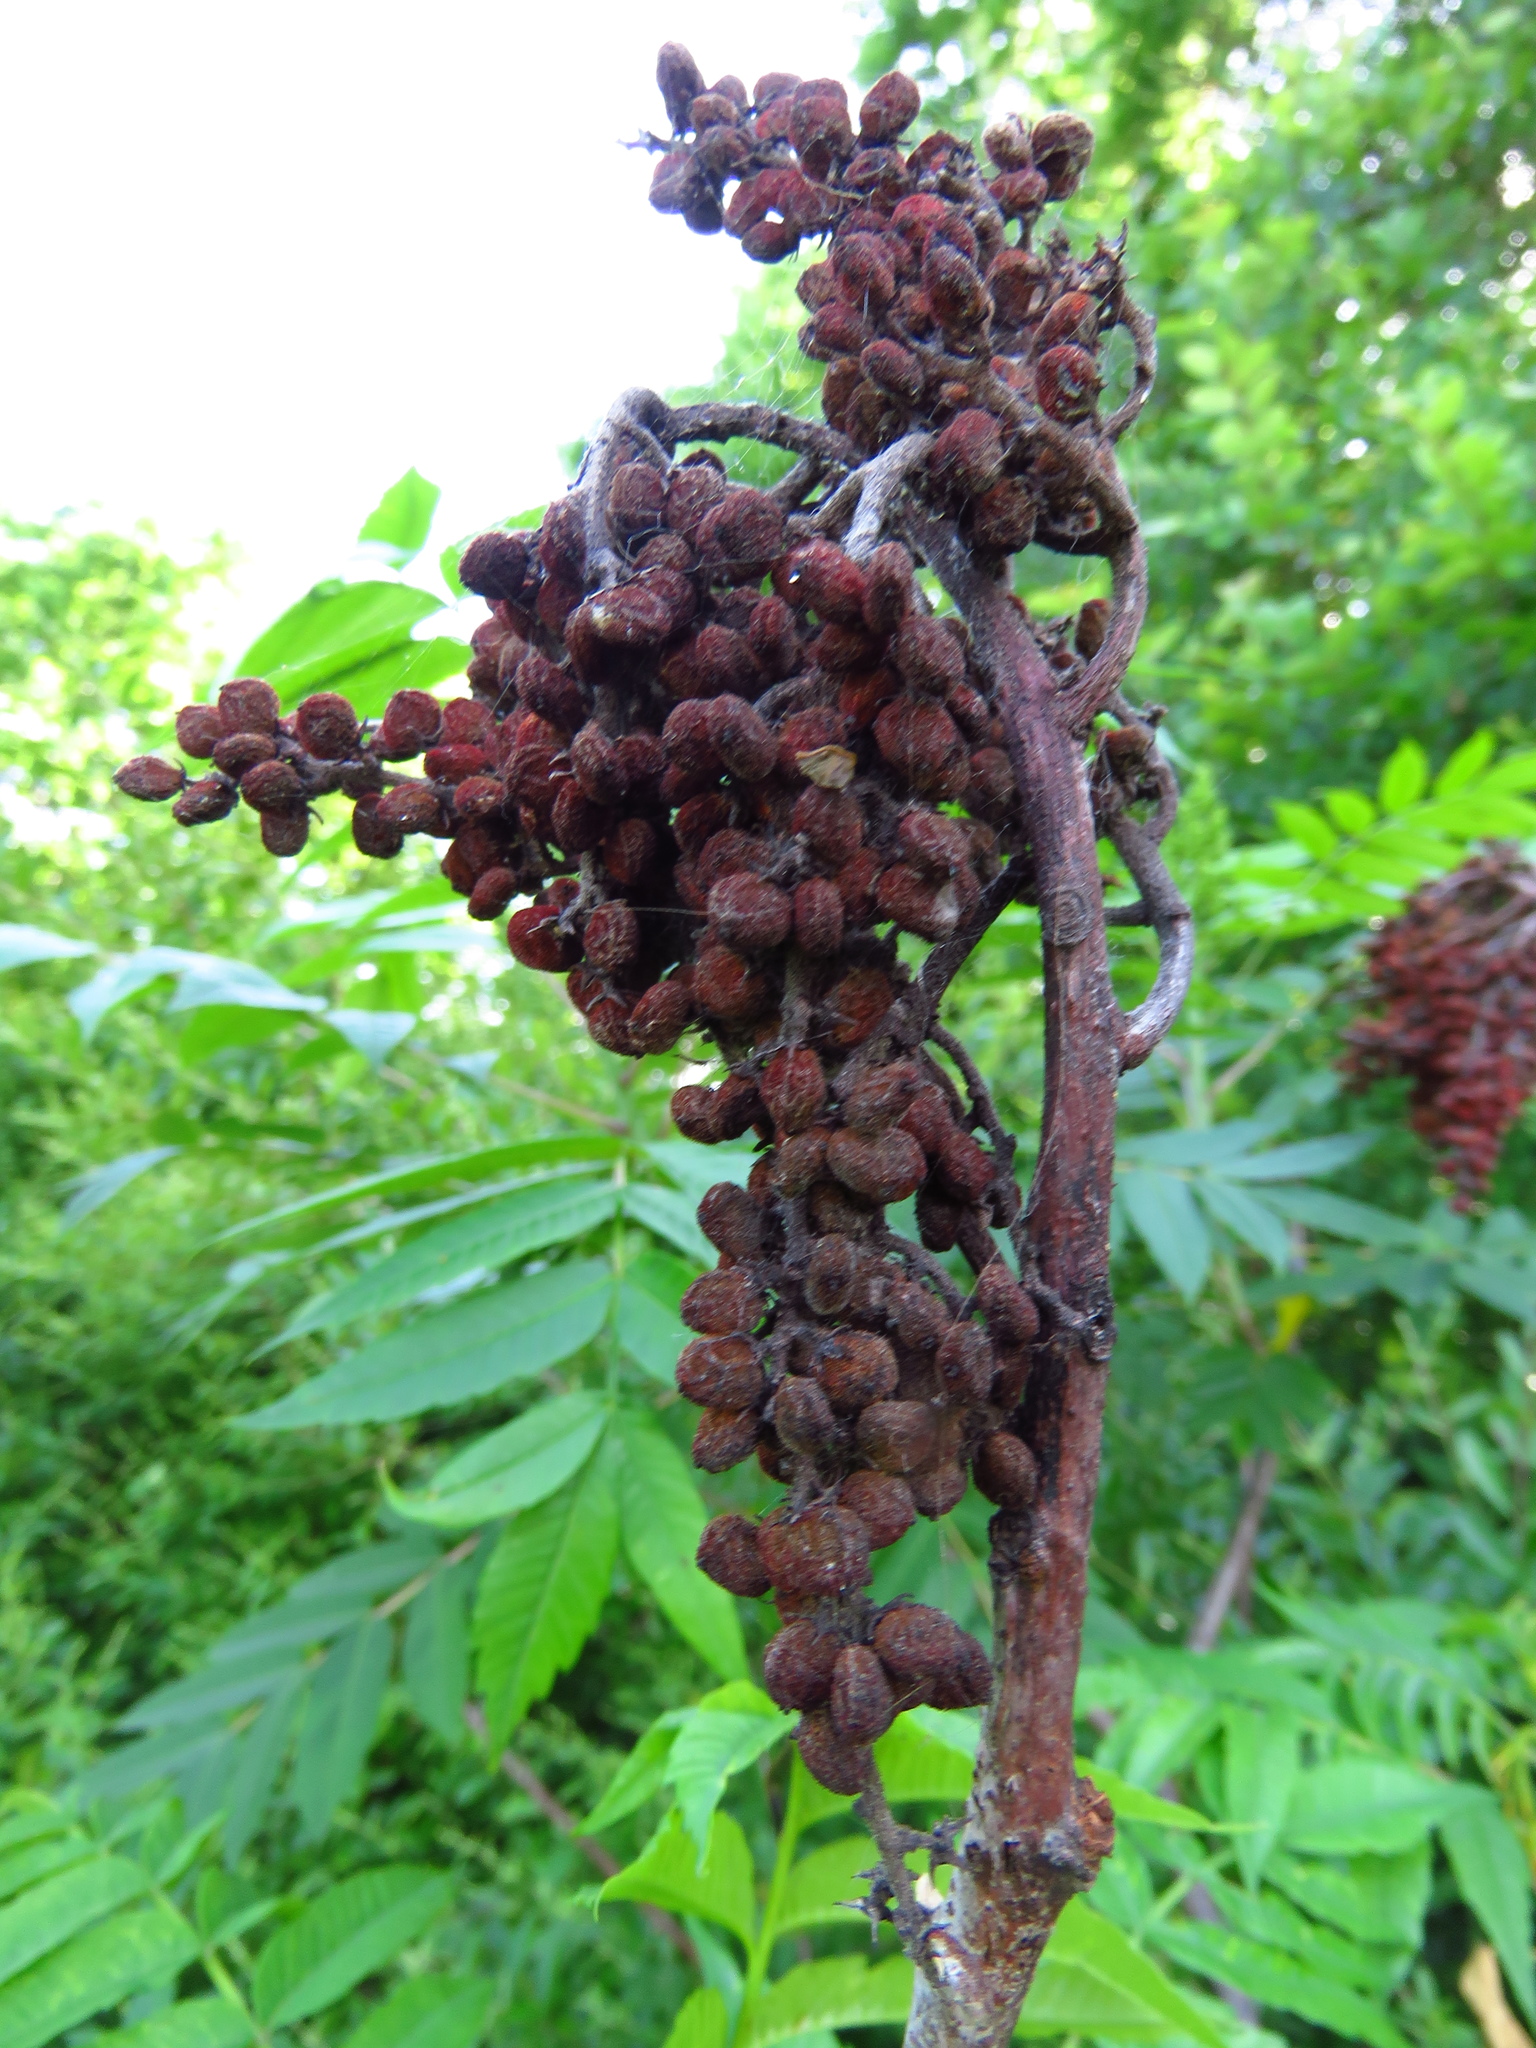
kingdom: Plantae
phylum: Tracheophyta
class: Magnoliopsida
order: Sapindales
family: Anacardiaceae
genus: Rhus
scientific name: Rhus glabra
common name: Scarlet sumac
